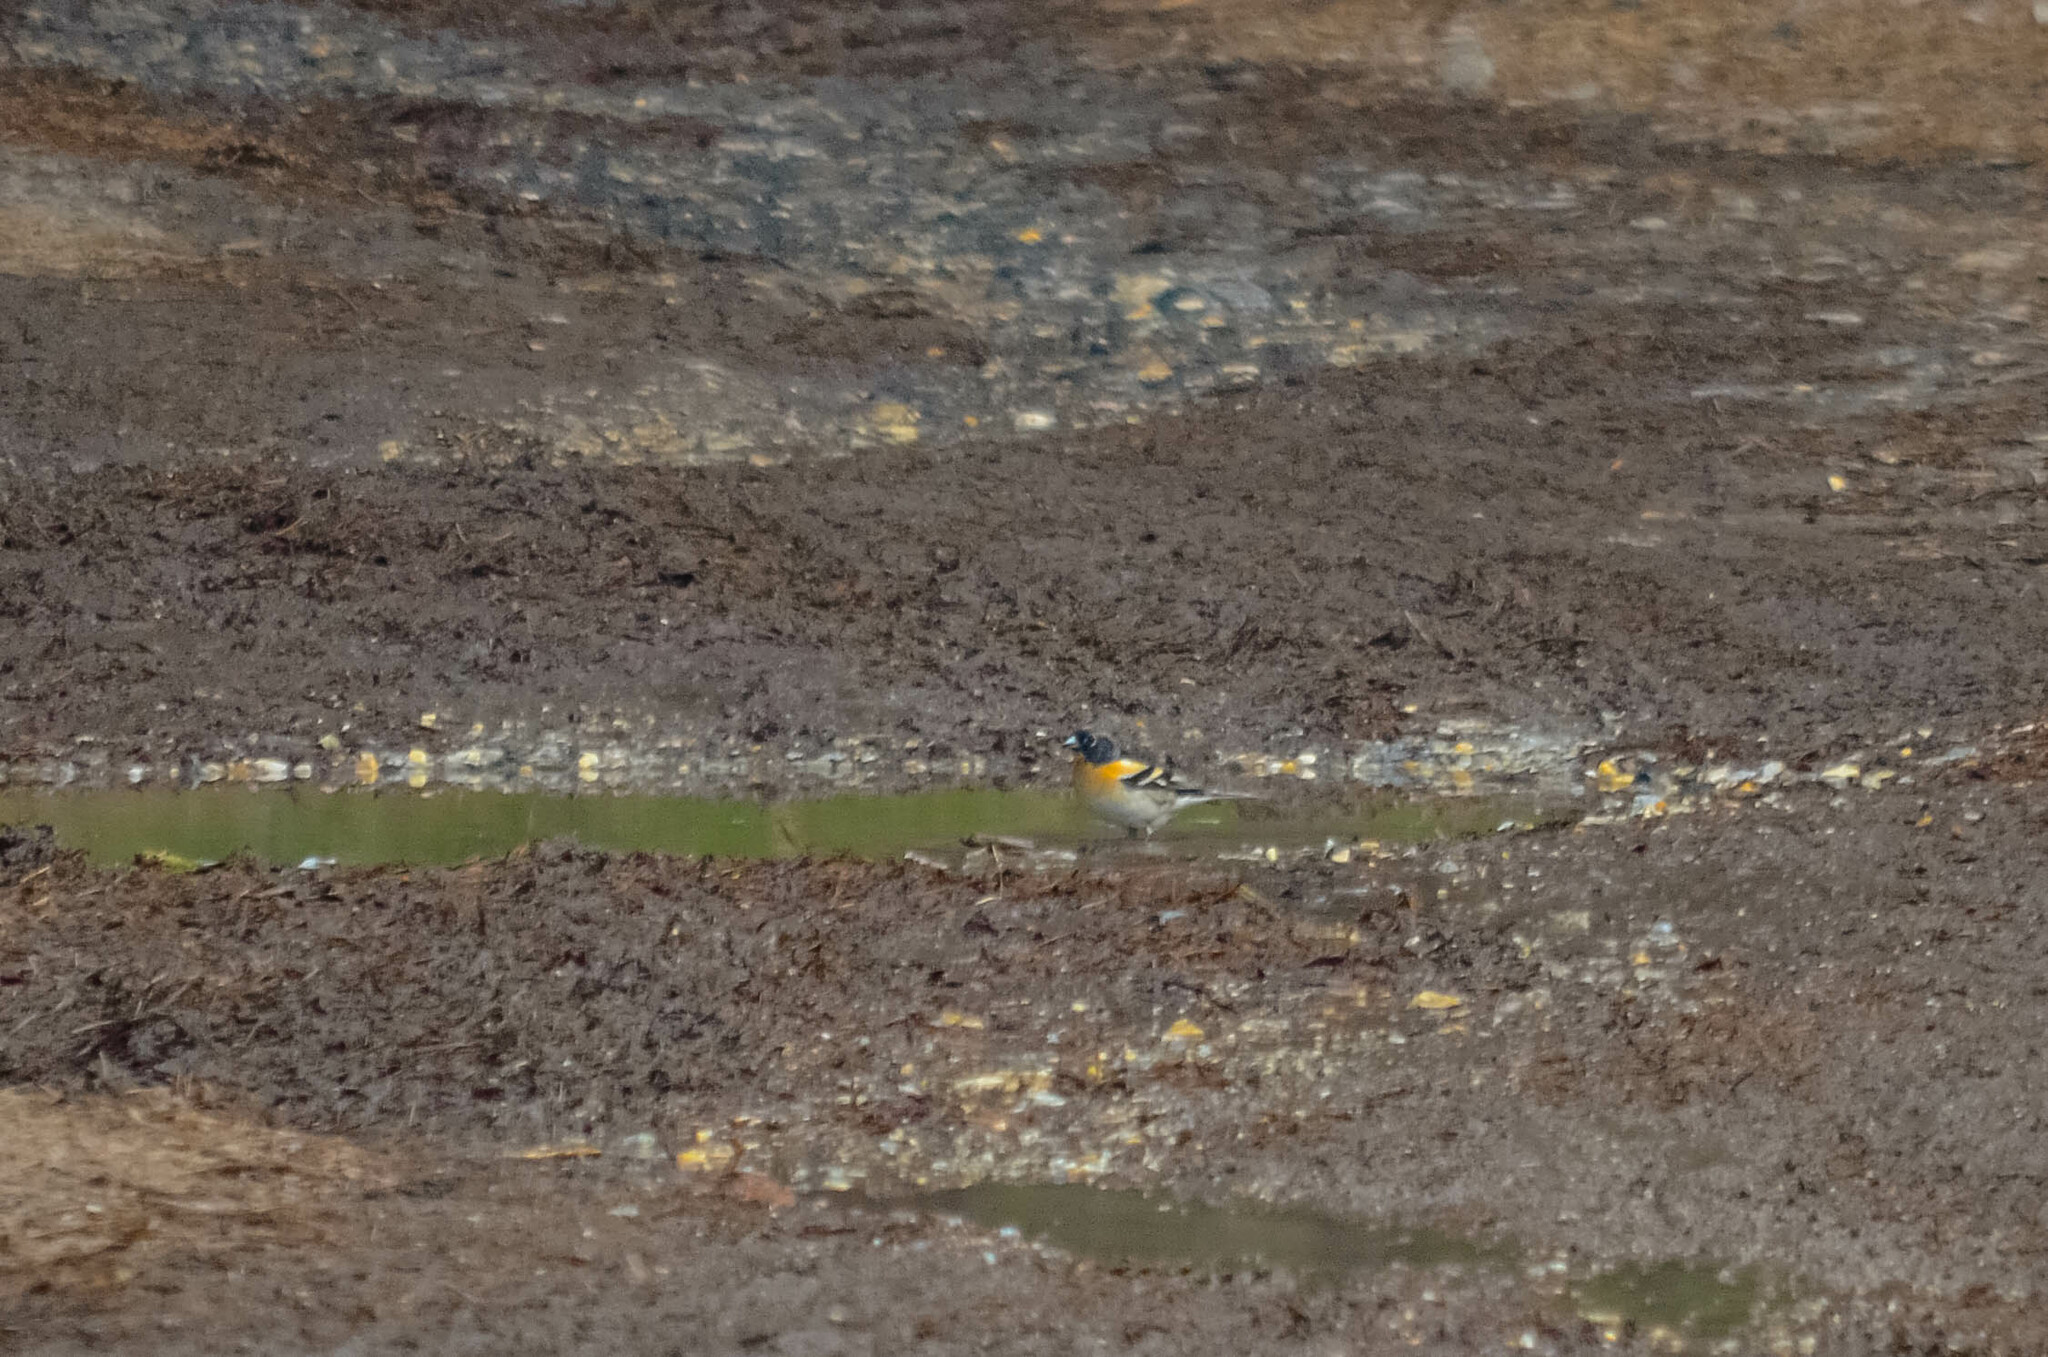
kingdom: Animalia
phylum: Chordata
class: Aves
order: Passeriformes
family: Fringillidae
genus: Fringilla
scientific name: Fringilla montifringilla
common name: Brambling
